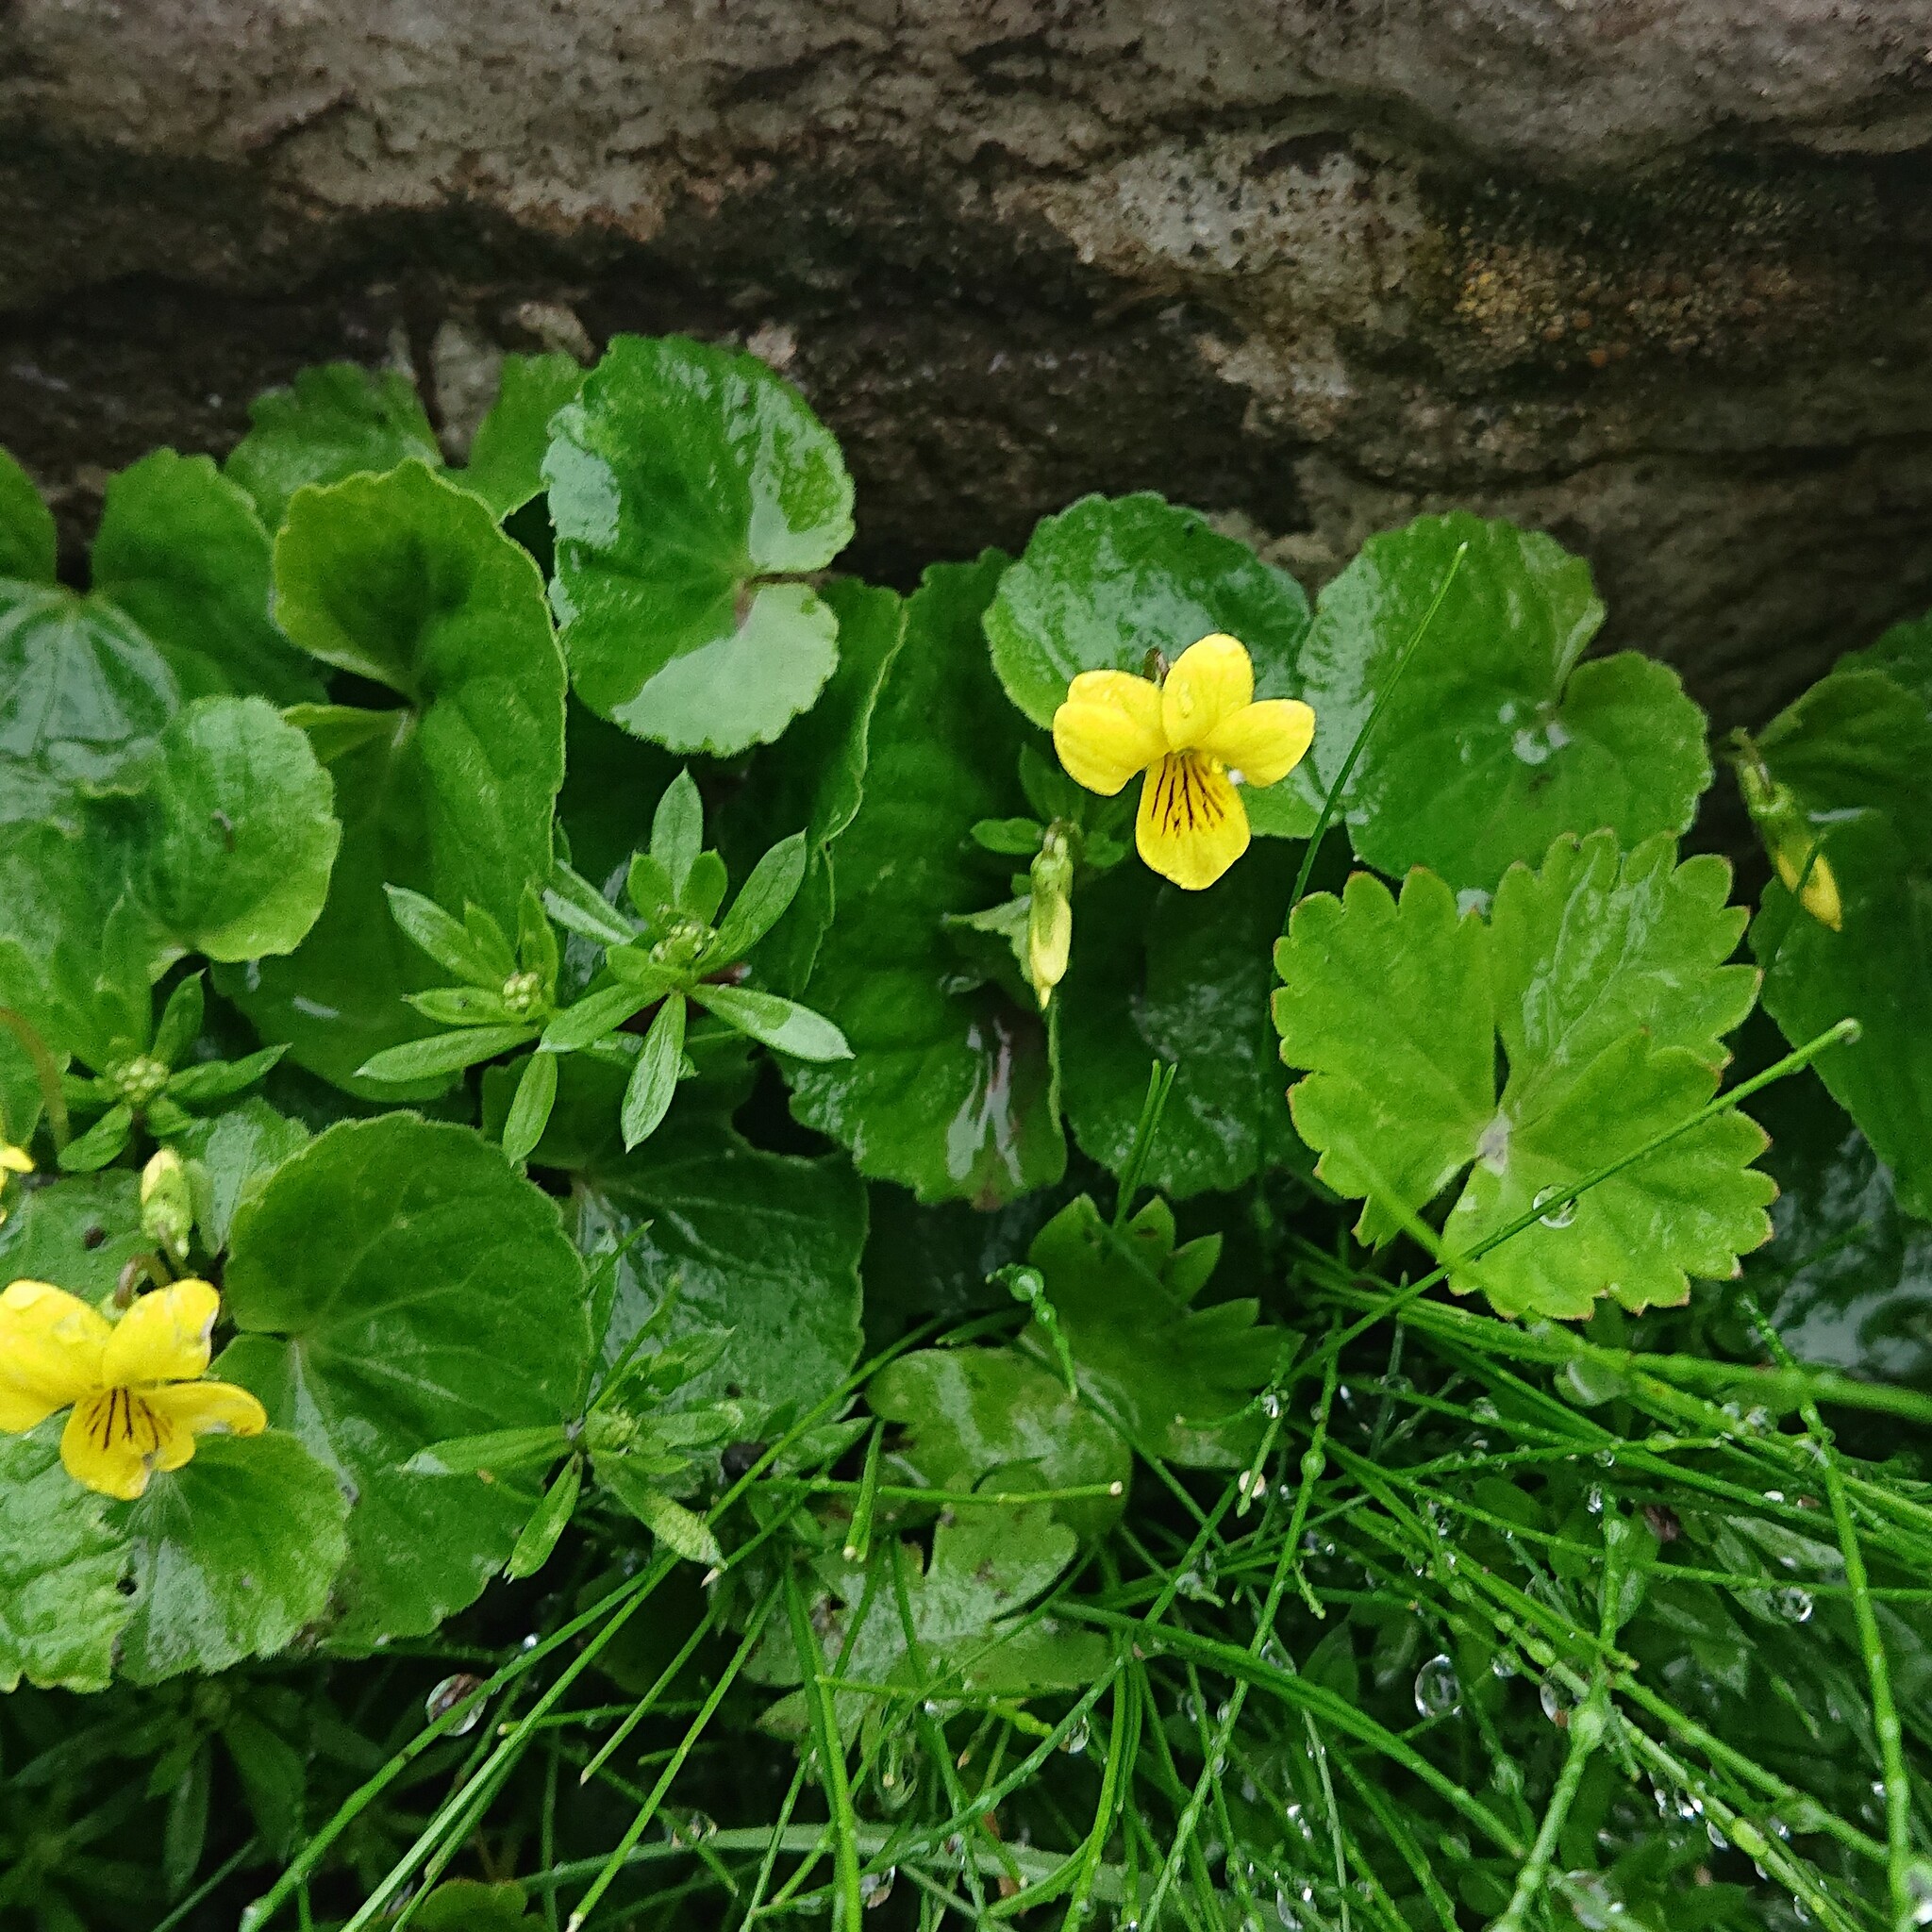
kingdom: Plantae
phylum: Tracheophyta
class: Magnoliopsida
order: Malpighiales
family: Violaceae
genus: Viola
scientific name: Viola biflora
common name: Alpine yellow violet
